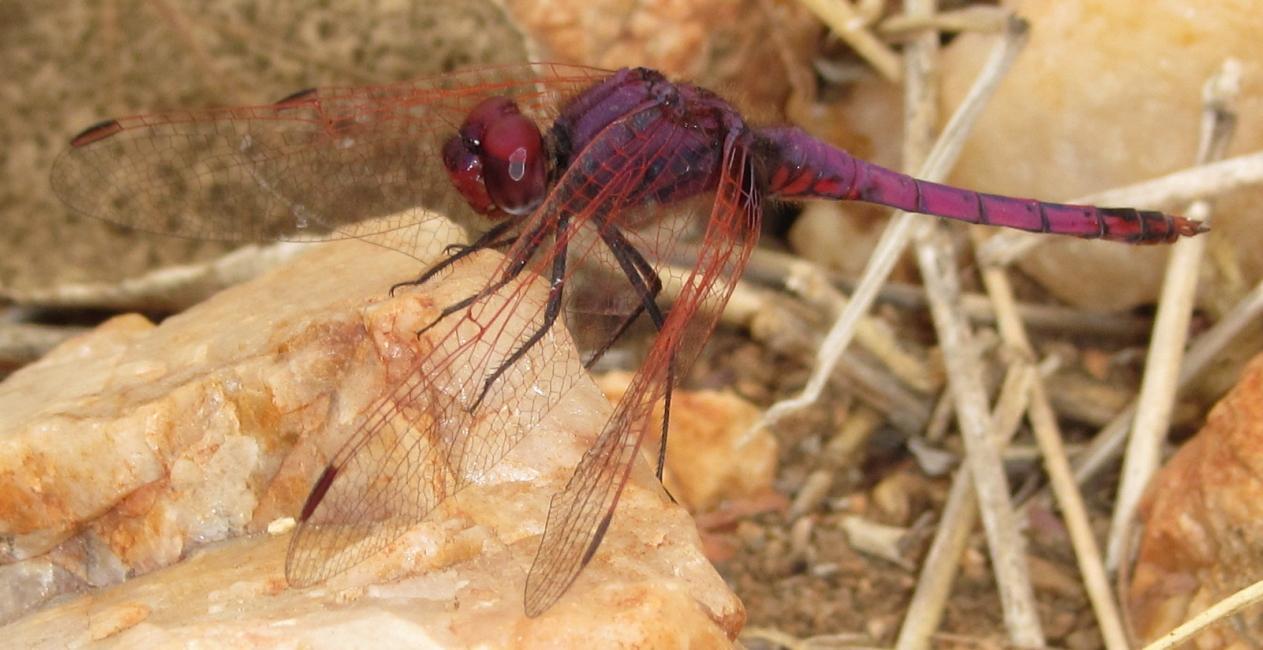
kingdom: Animalia
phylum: Arthropoda
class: Insecta
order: Odonata
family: Libellulidae
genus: Trithemis
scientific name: Trithemis annulata
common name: Violet dropwing
